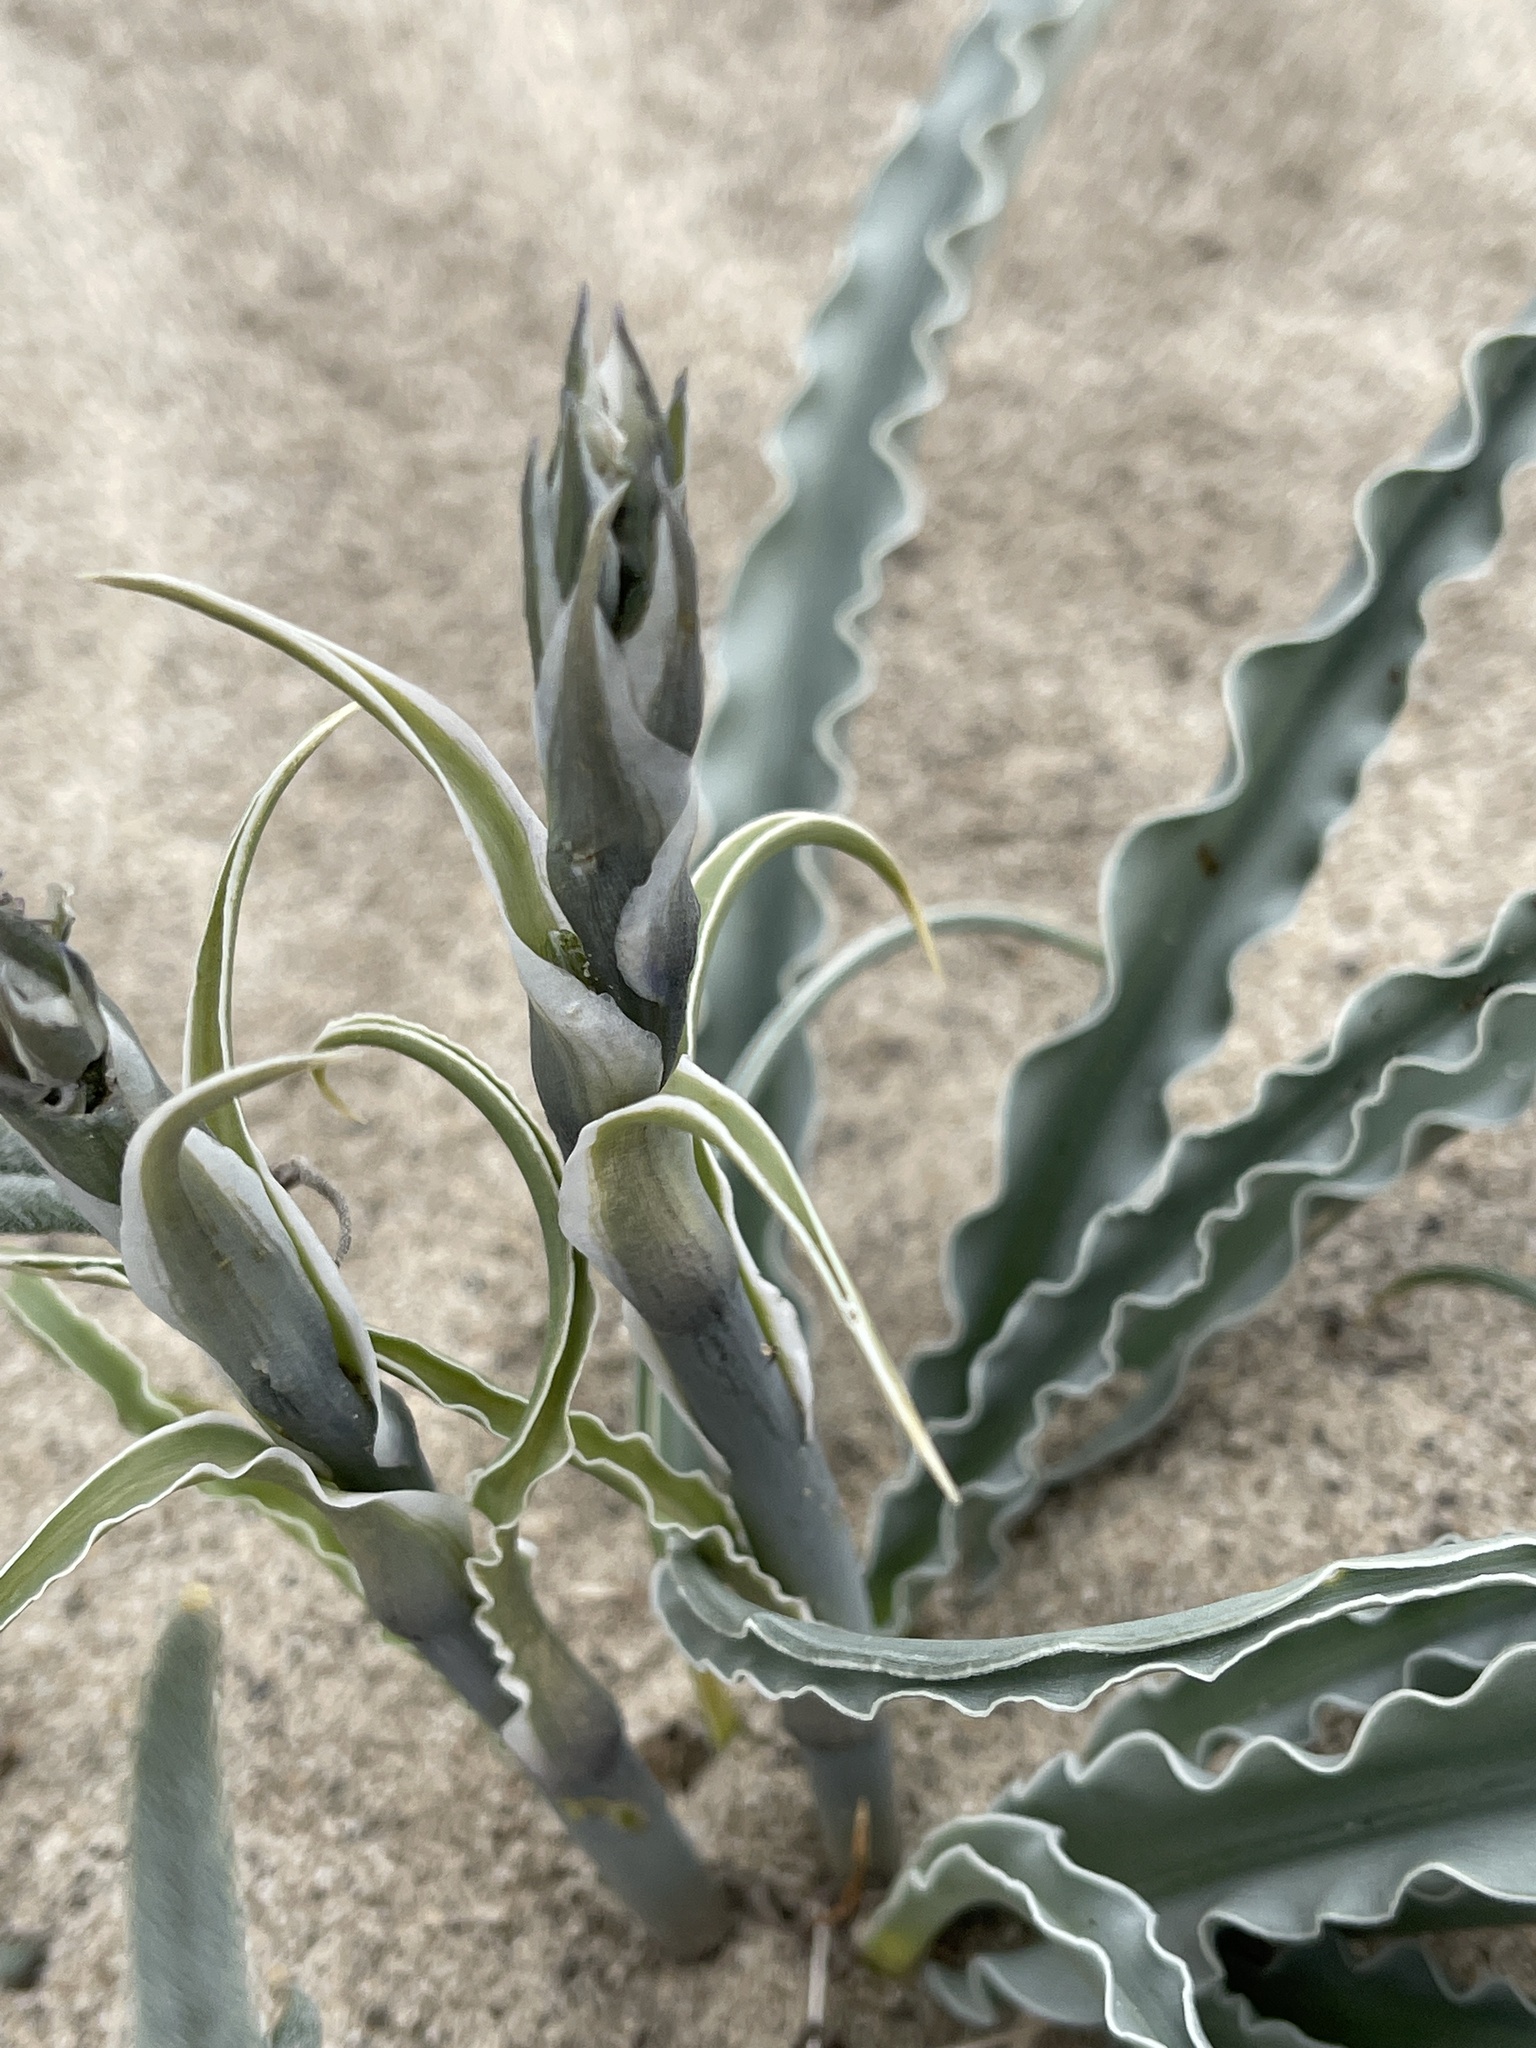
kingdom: Plantae
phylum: Tracheophyta
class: Liliopsida
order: Asparagales
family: Asparagaceae
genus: Hesperocallis
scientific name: Hesperocallis undulata
